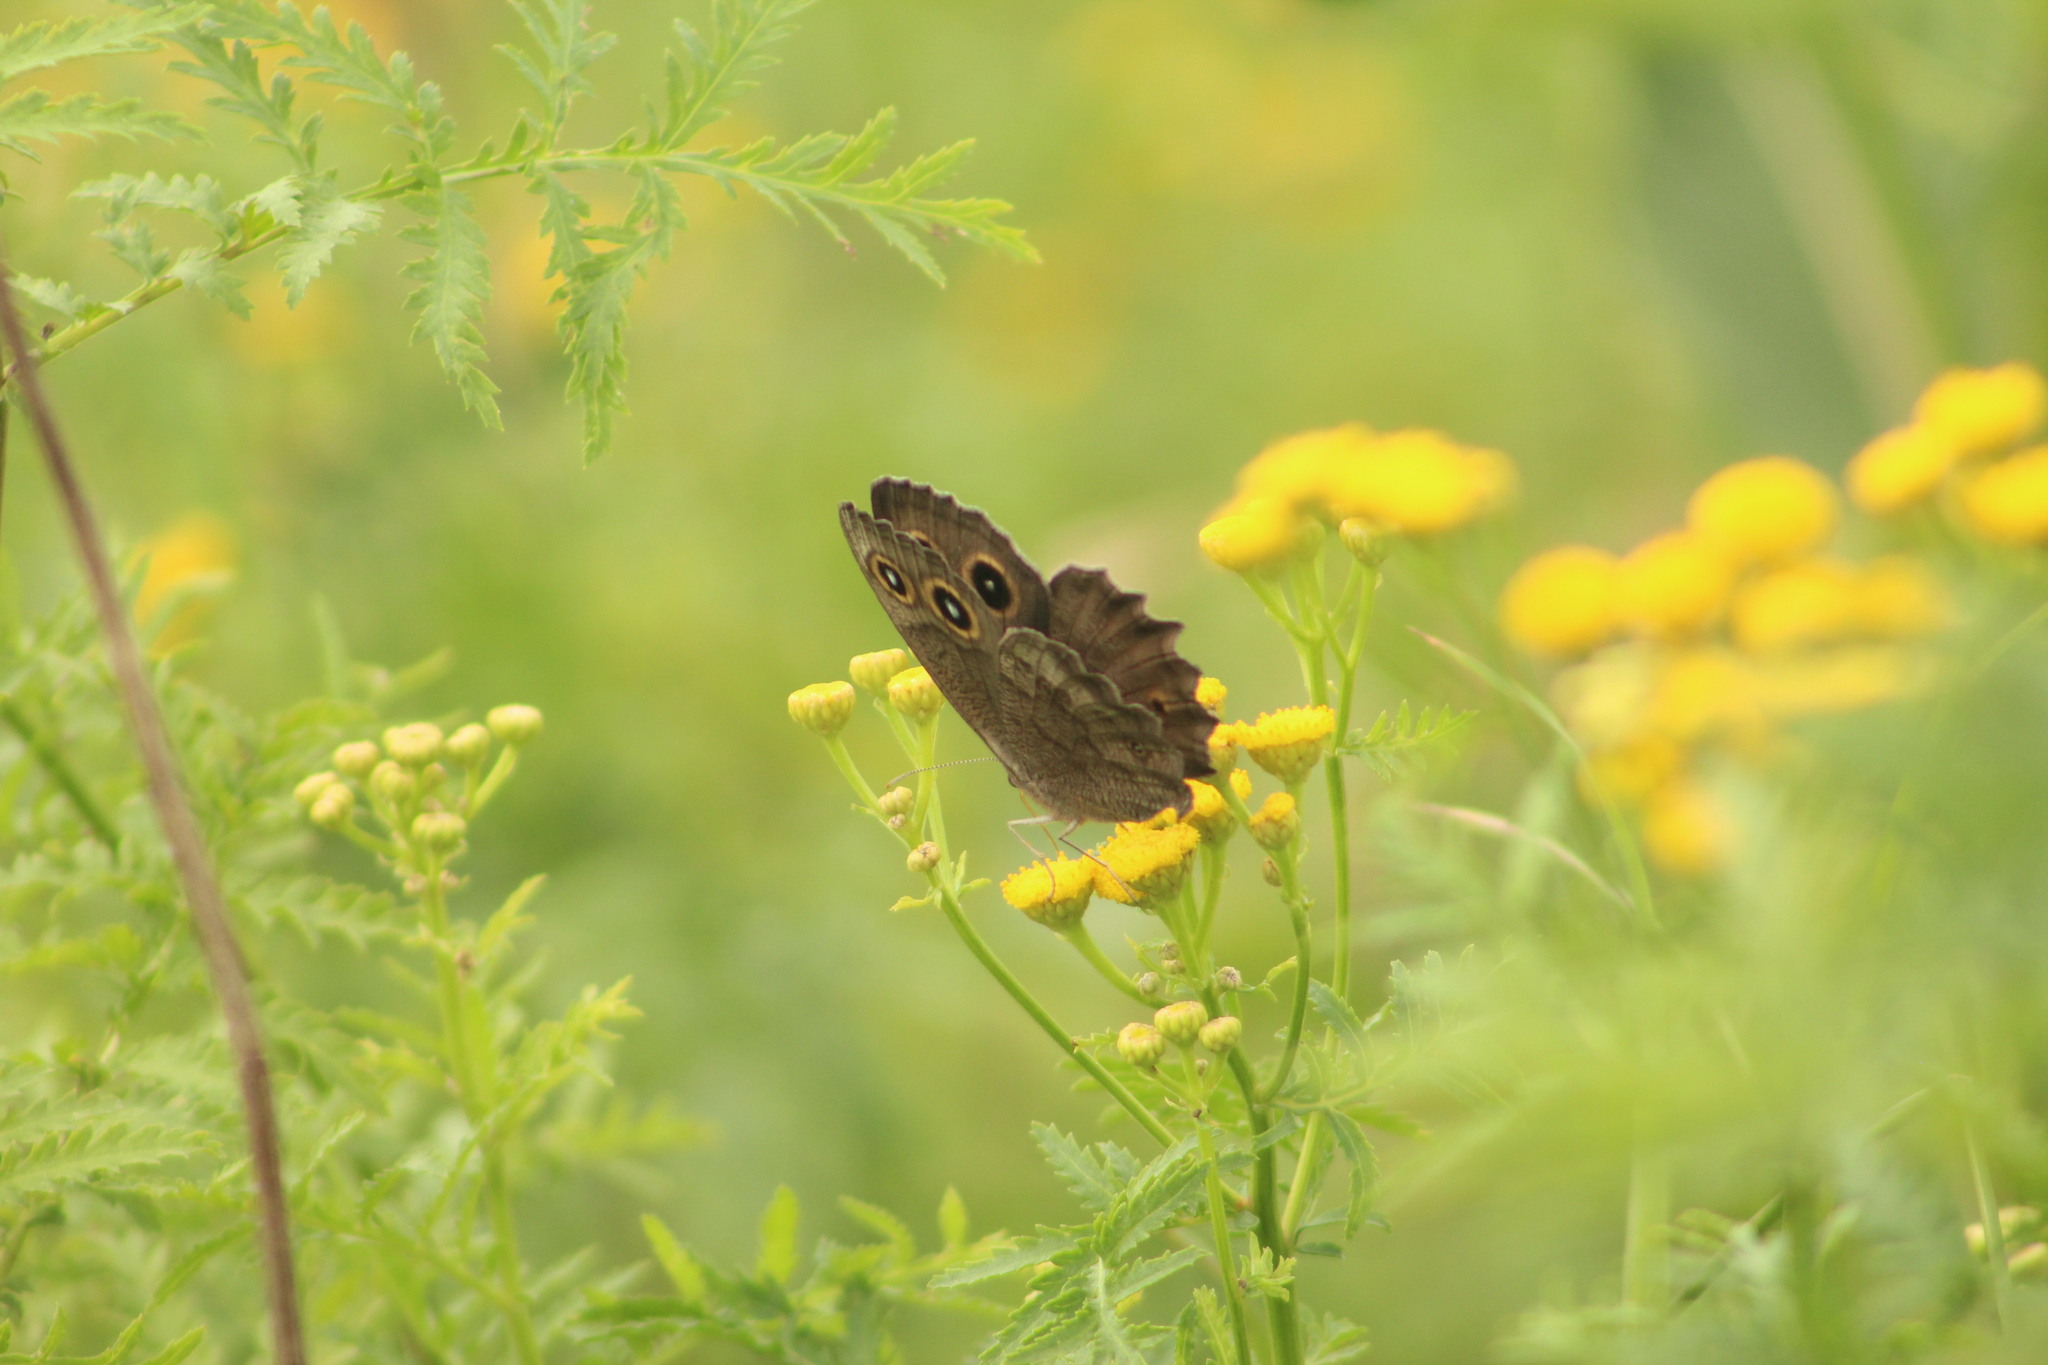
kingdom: Animalia
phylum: Arthropoda
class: Insecta
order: Lepidoptera
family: Nymphalidae
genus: Cercyonis
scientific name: Cercyonis pegala
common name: Common wood-nymph
